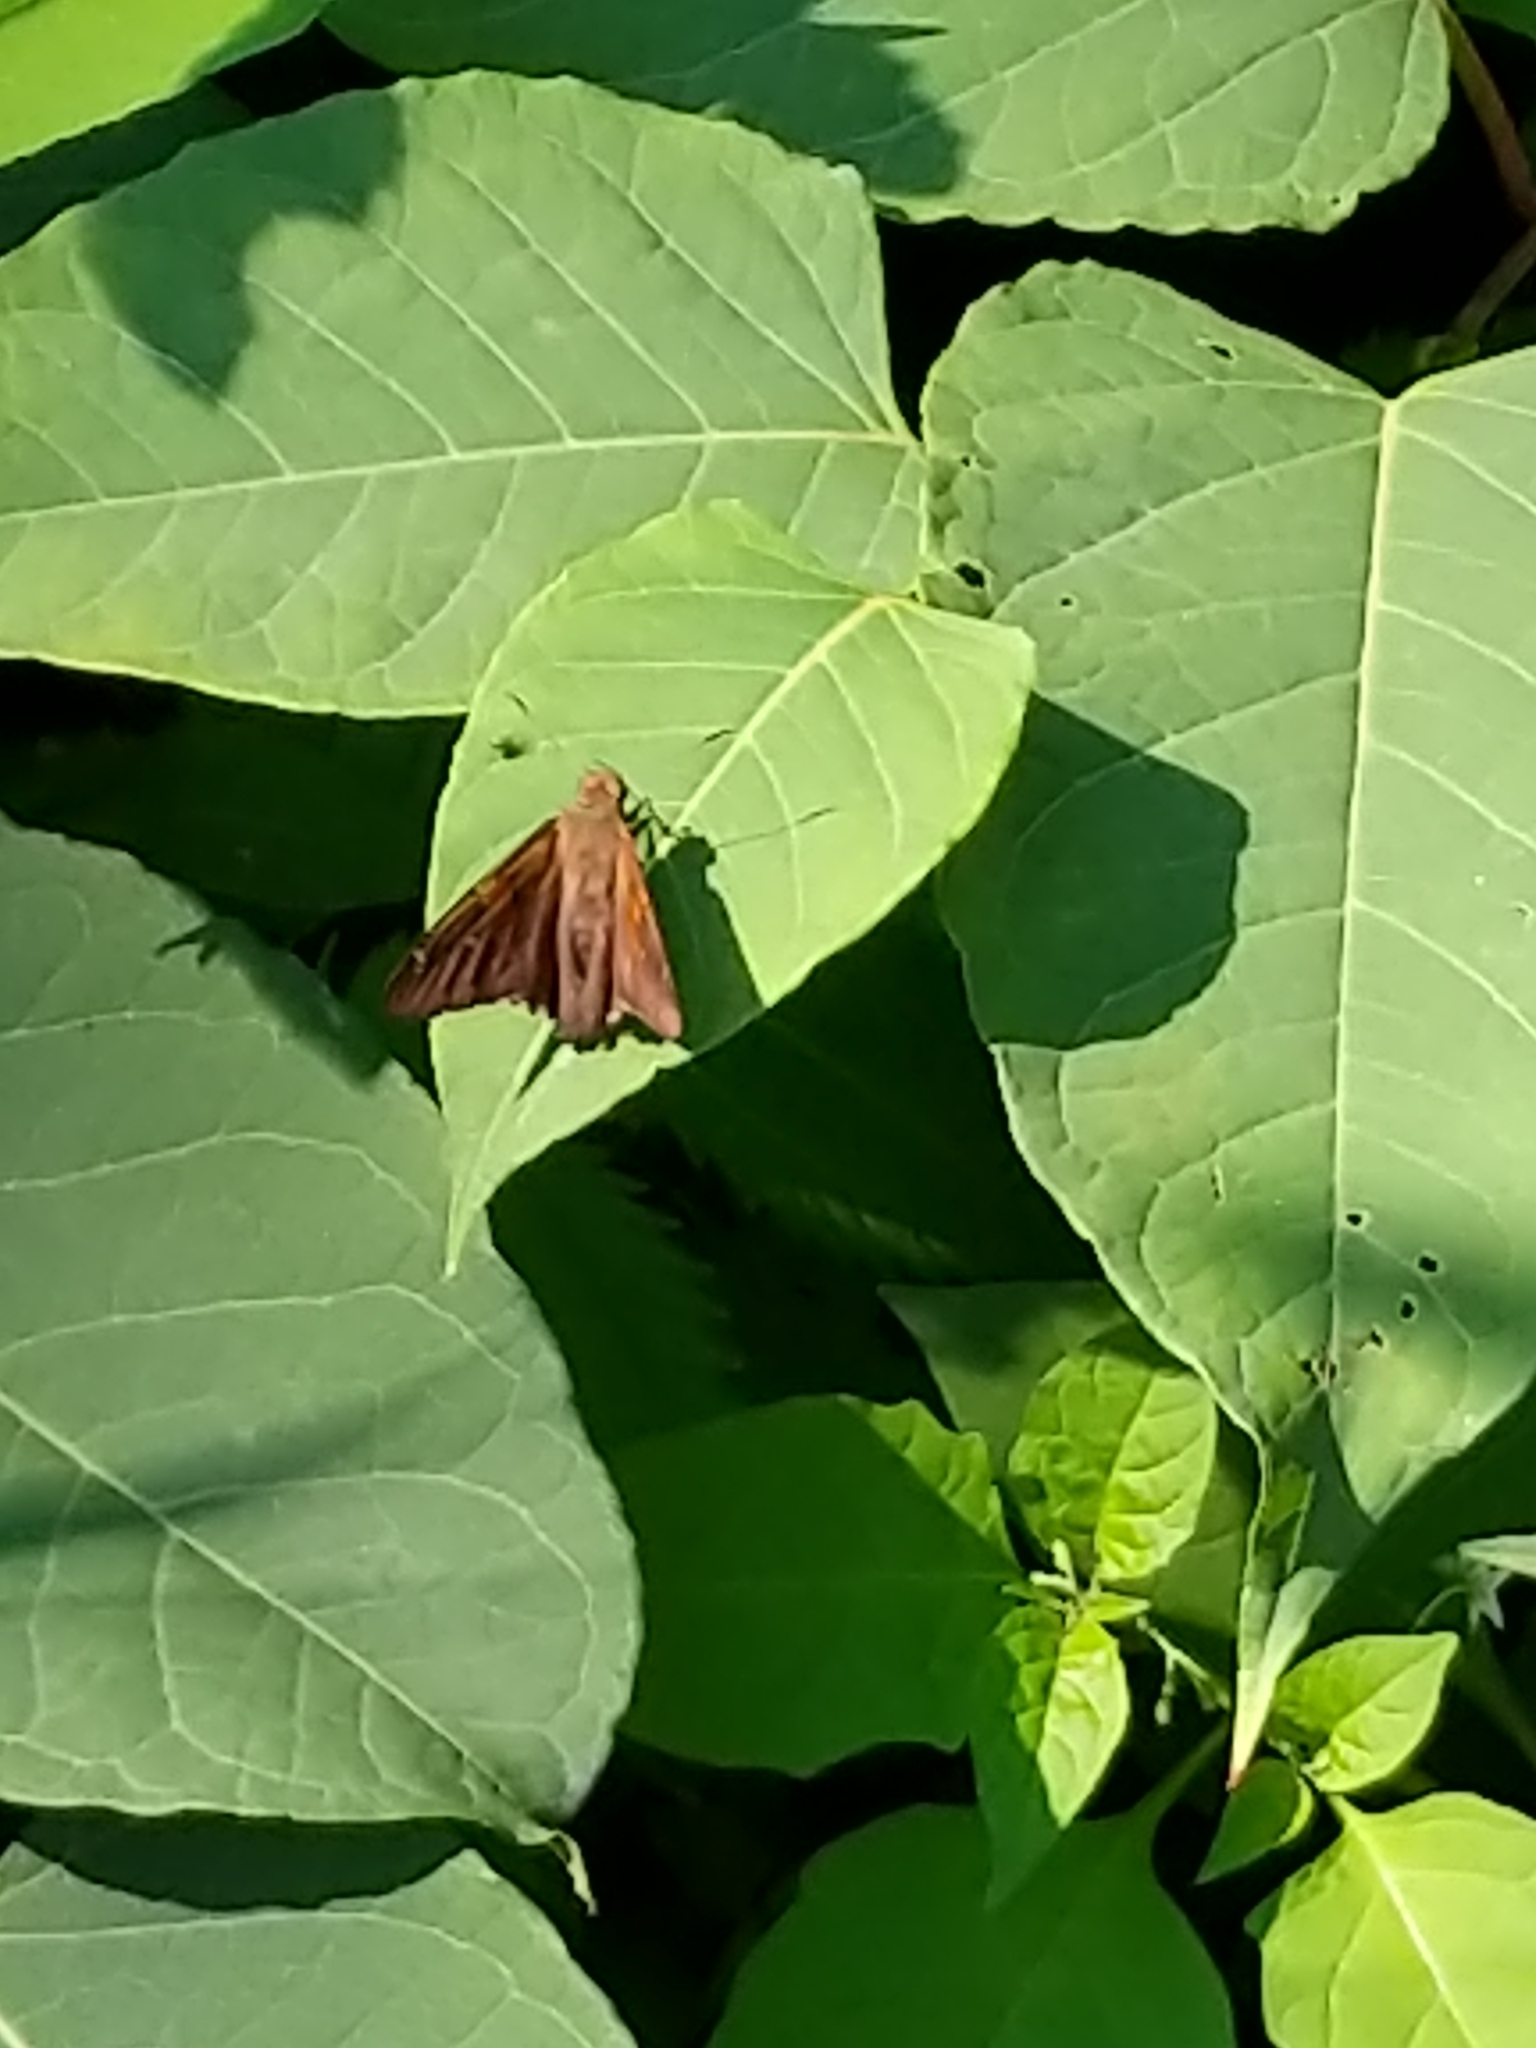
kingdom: Animalia
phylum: Arthropoda
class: Insecta
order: Lepidoptera
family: Hesperiidae
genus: Epargyreus
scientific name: Epargyreus clarus
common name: Silver-spotted skipper
